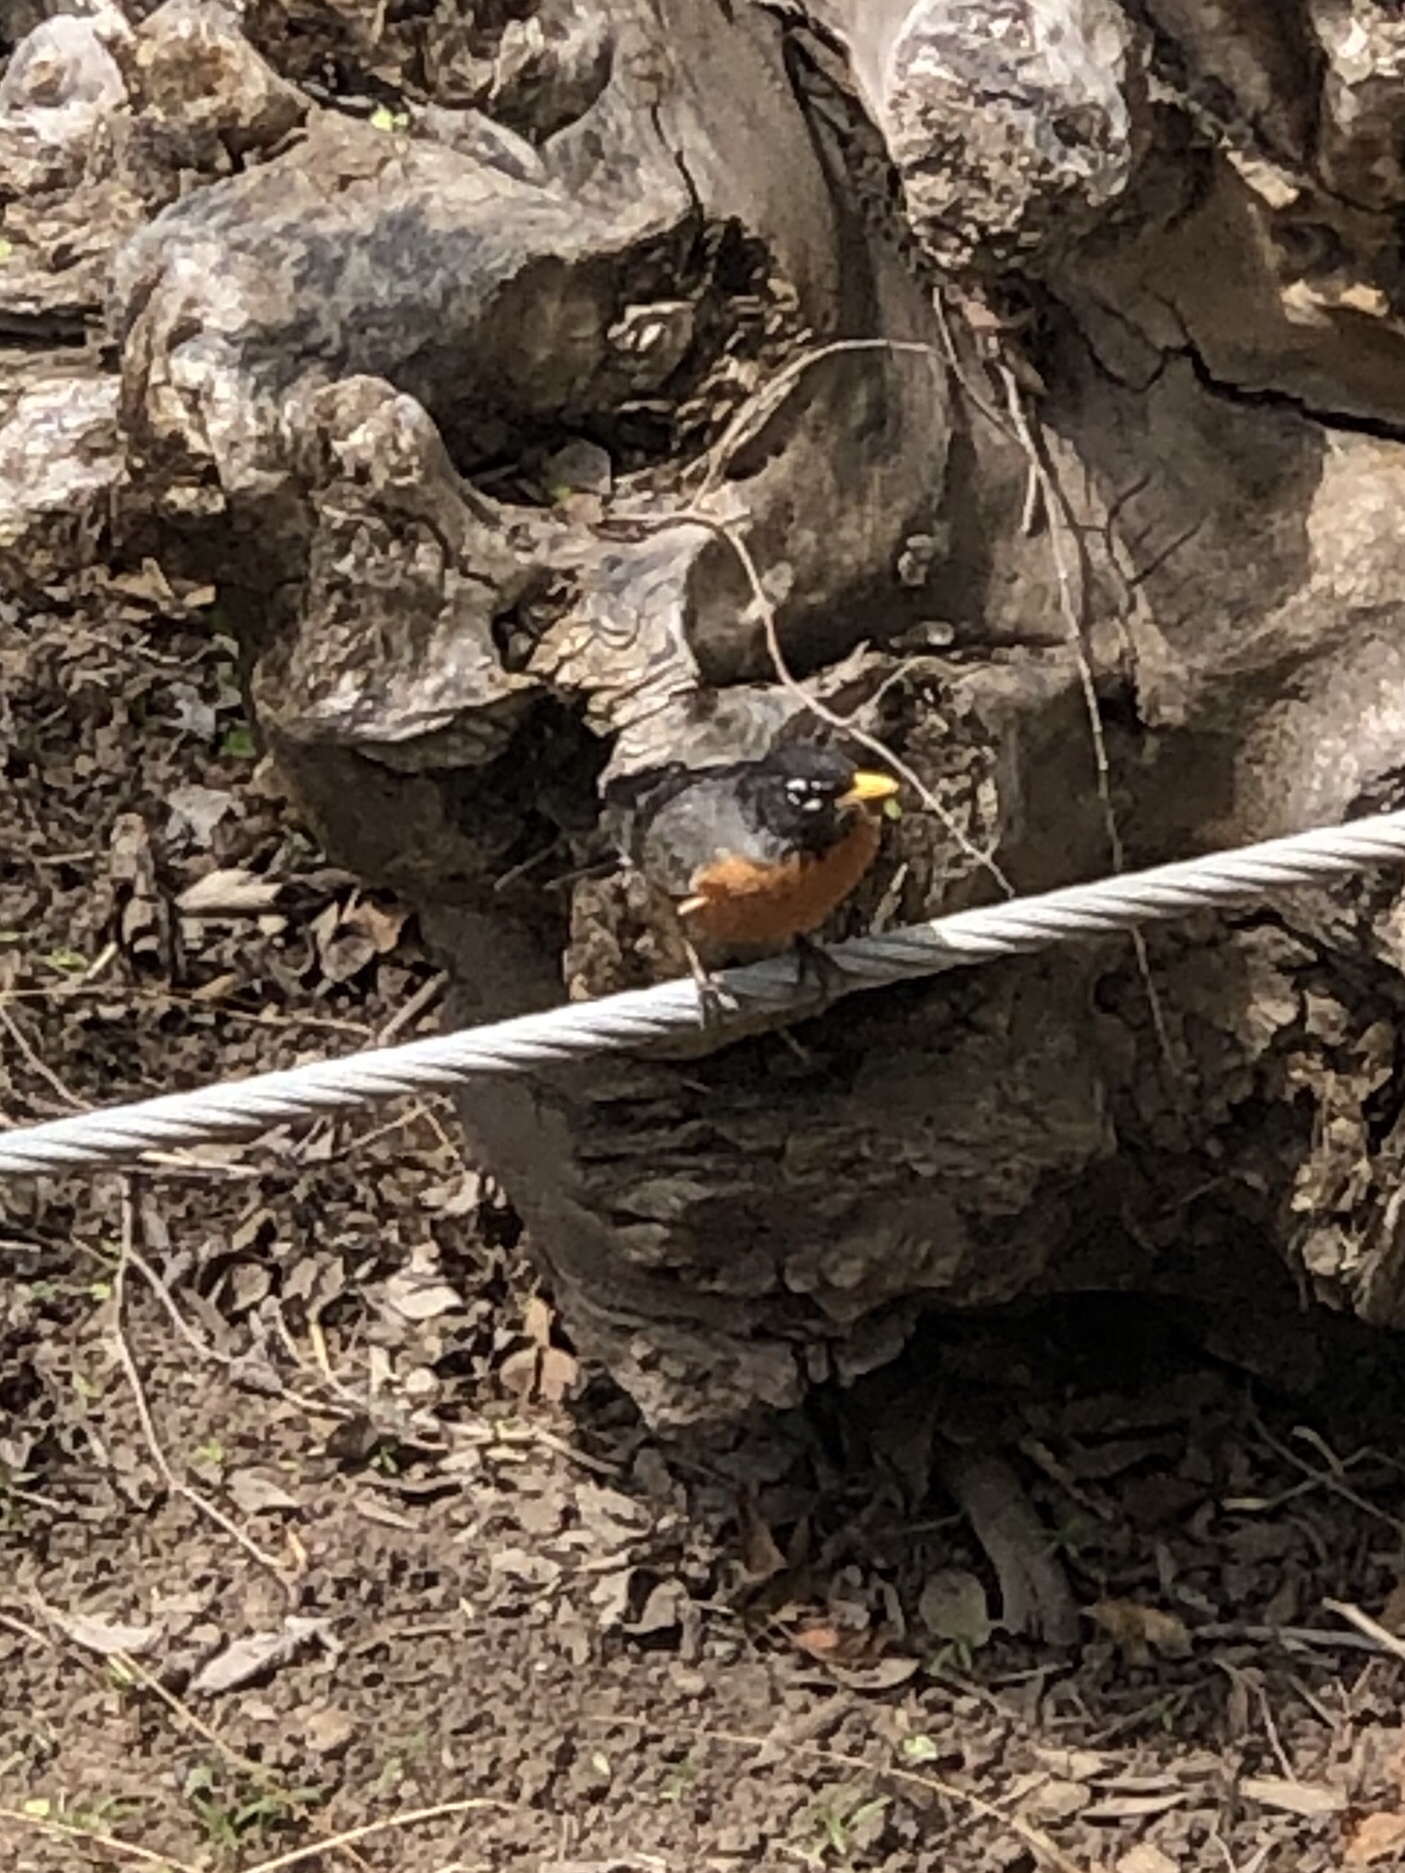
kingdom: Animalia
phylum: Chordata
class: Aves
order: Passeriformes
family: Turdidae
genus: Turdus
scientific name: Turdus migratorius
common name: American robin
